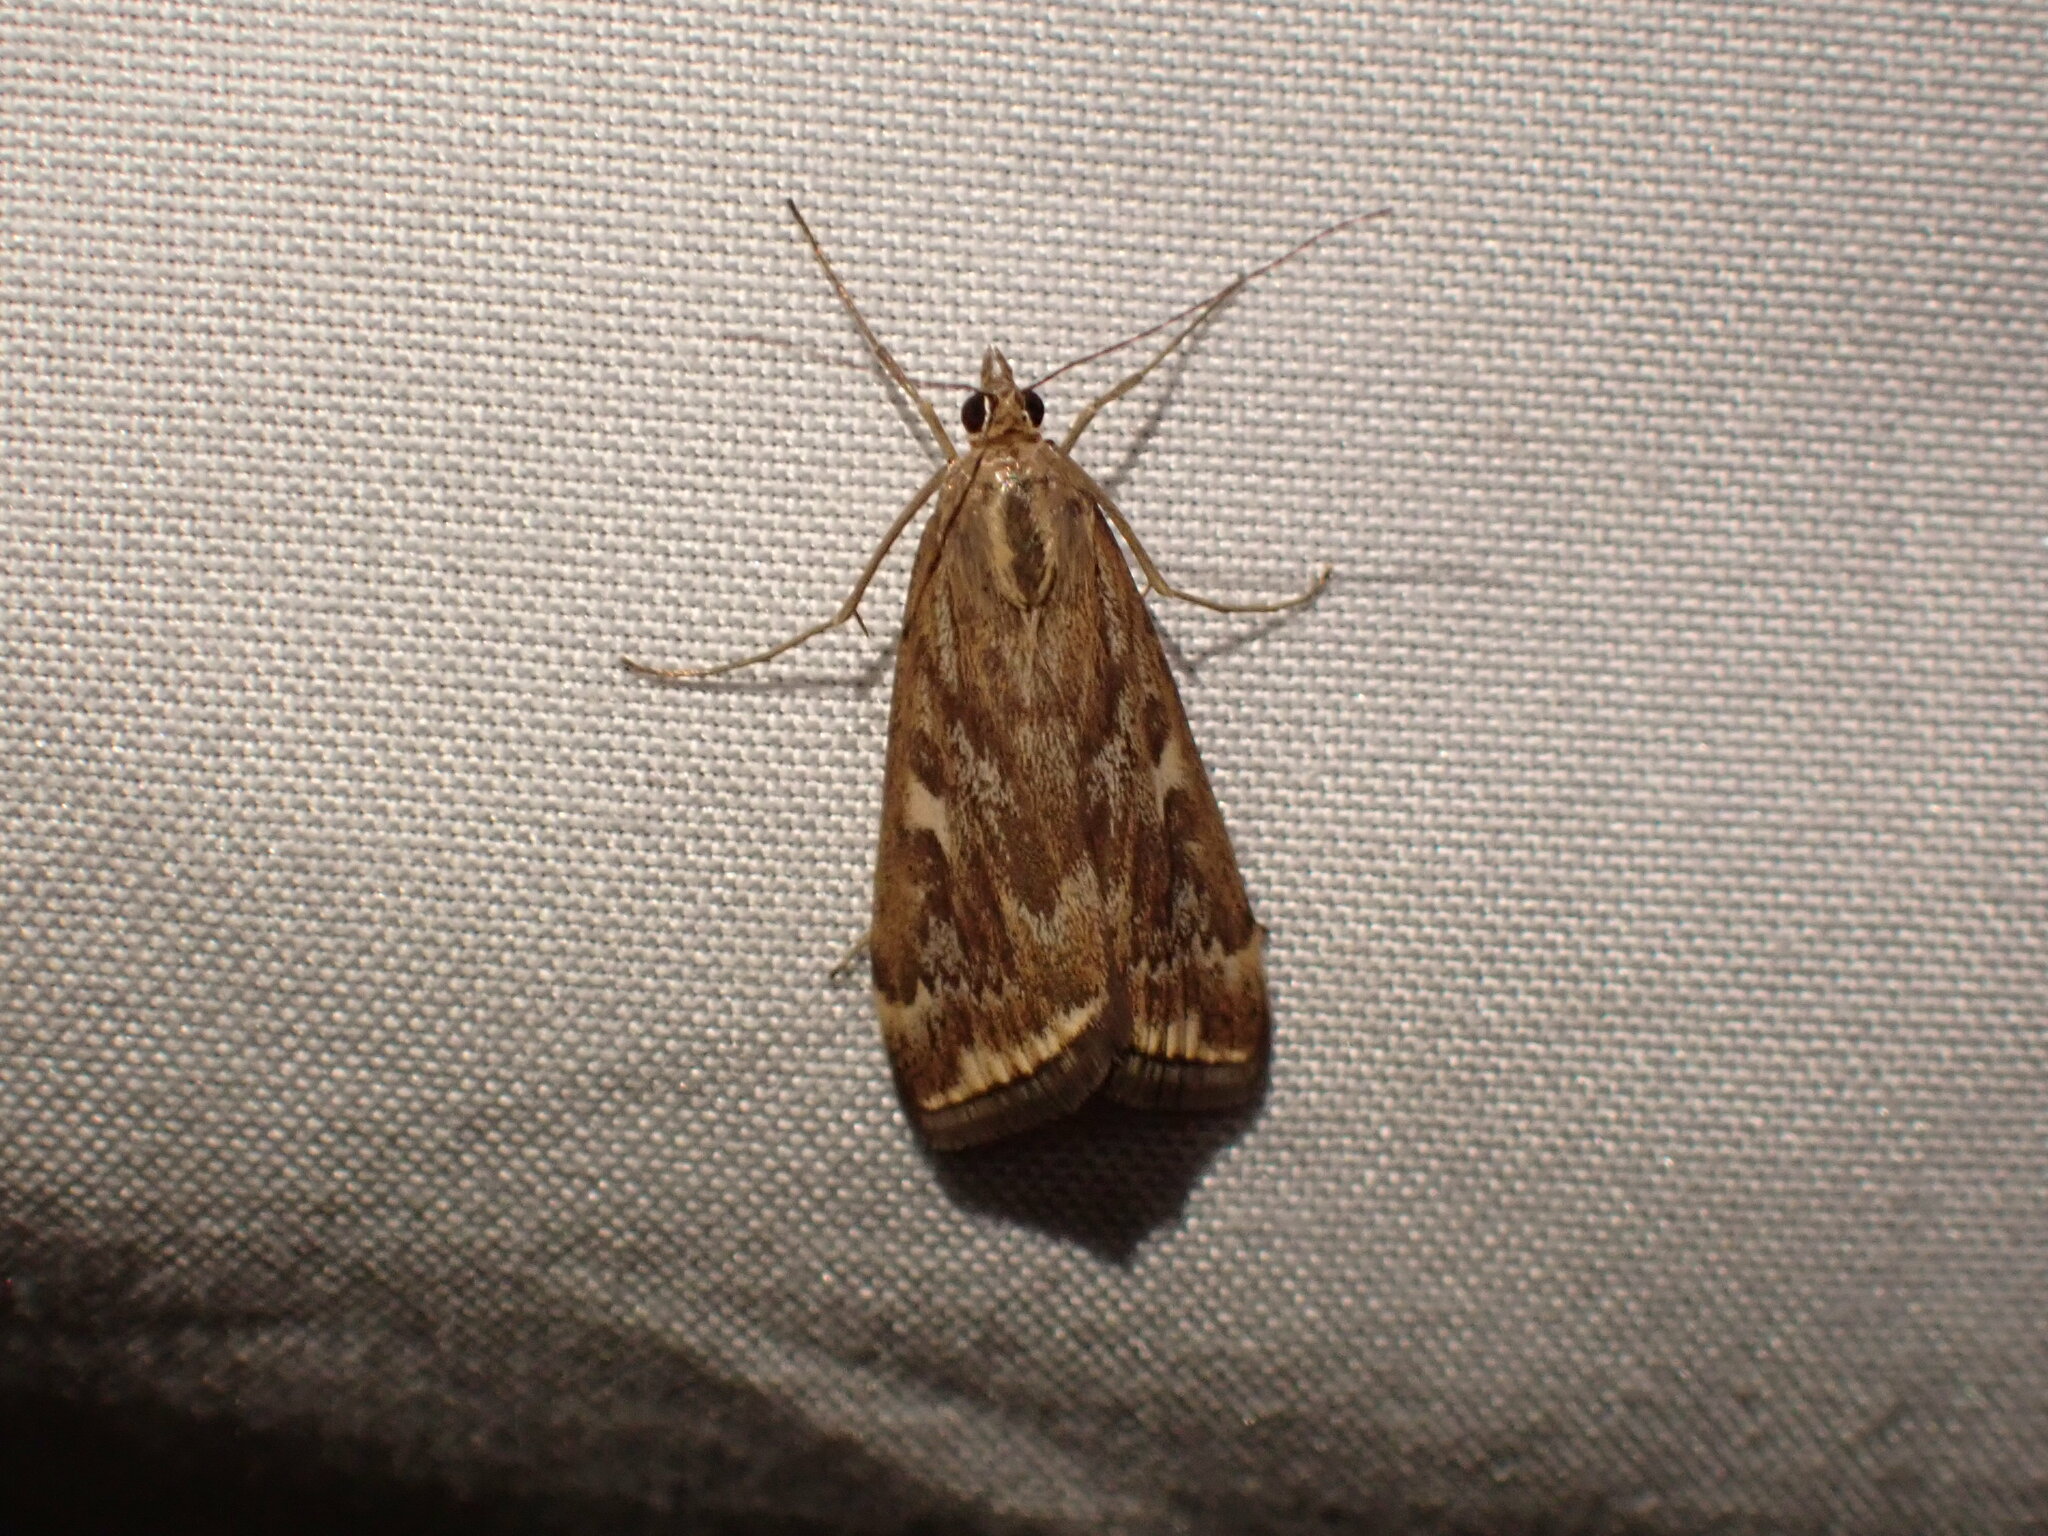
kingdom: Animalia
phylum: Arthropoda
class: Insecta
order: Lepidoptera
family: Crambidae
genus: Loxostege
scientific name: Loxostege
